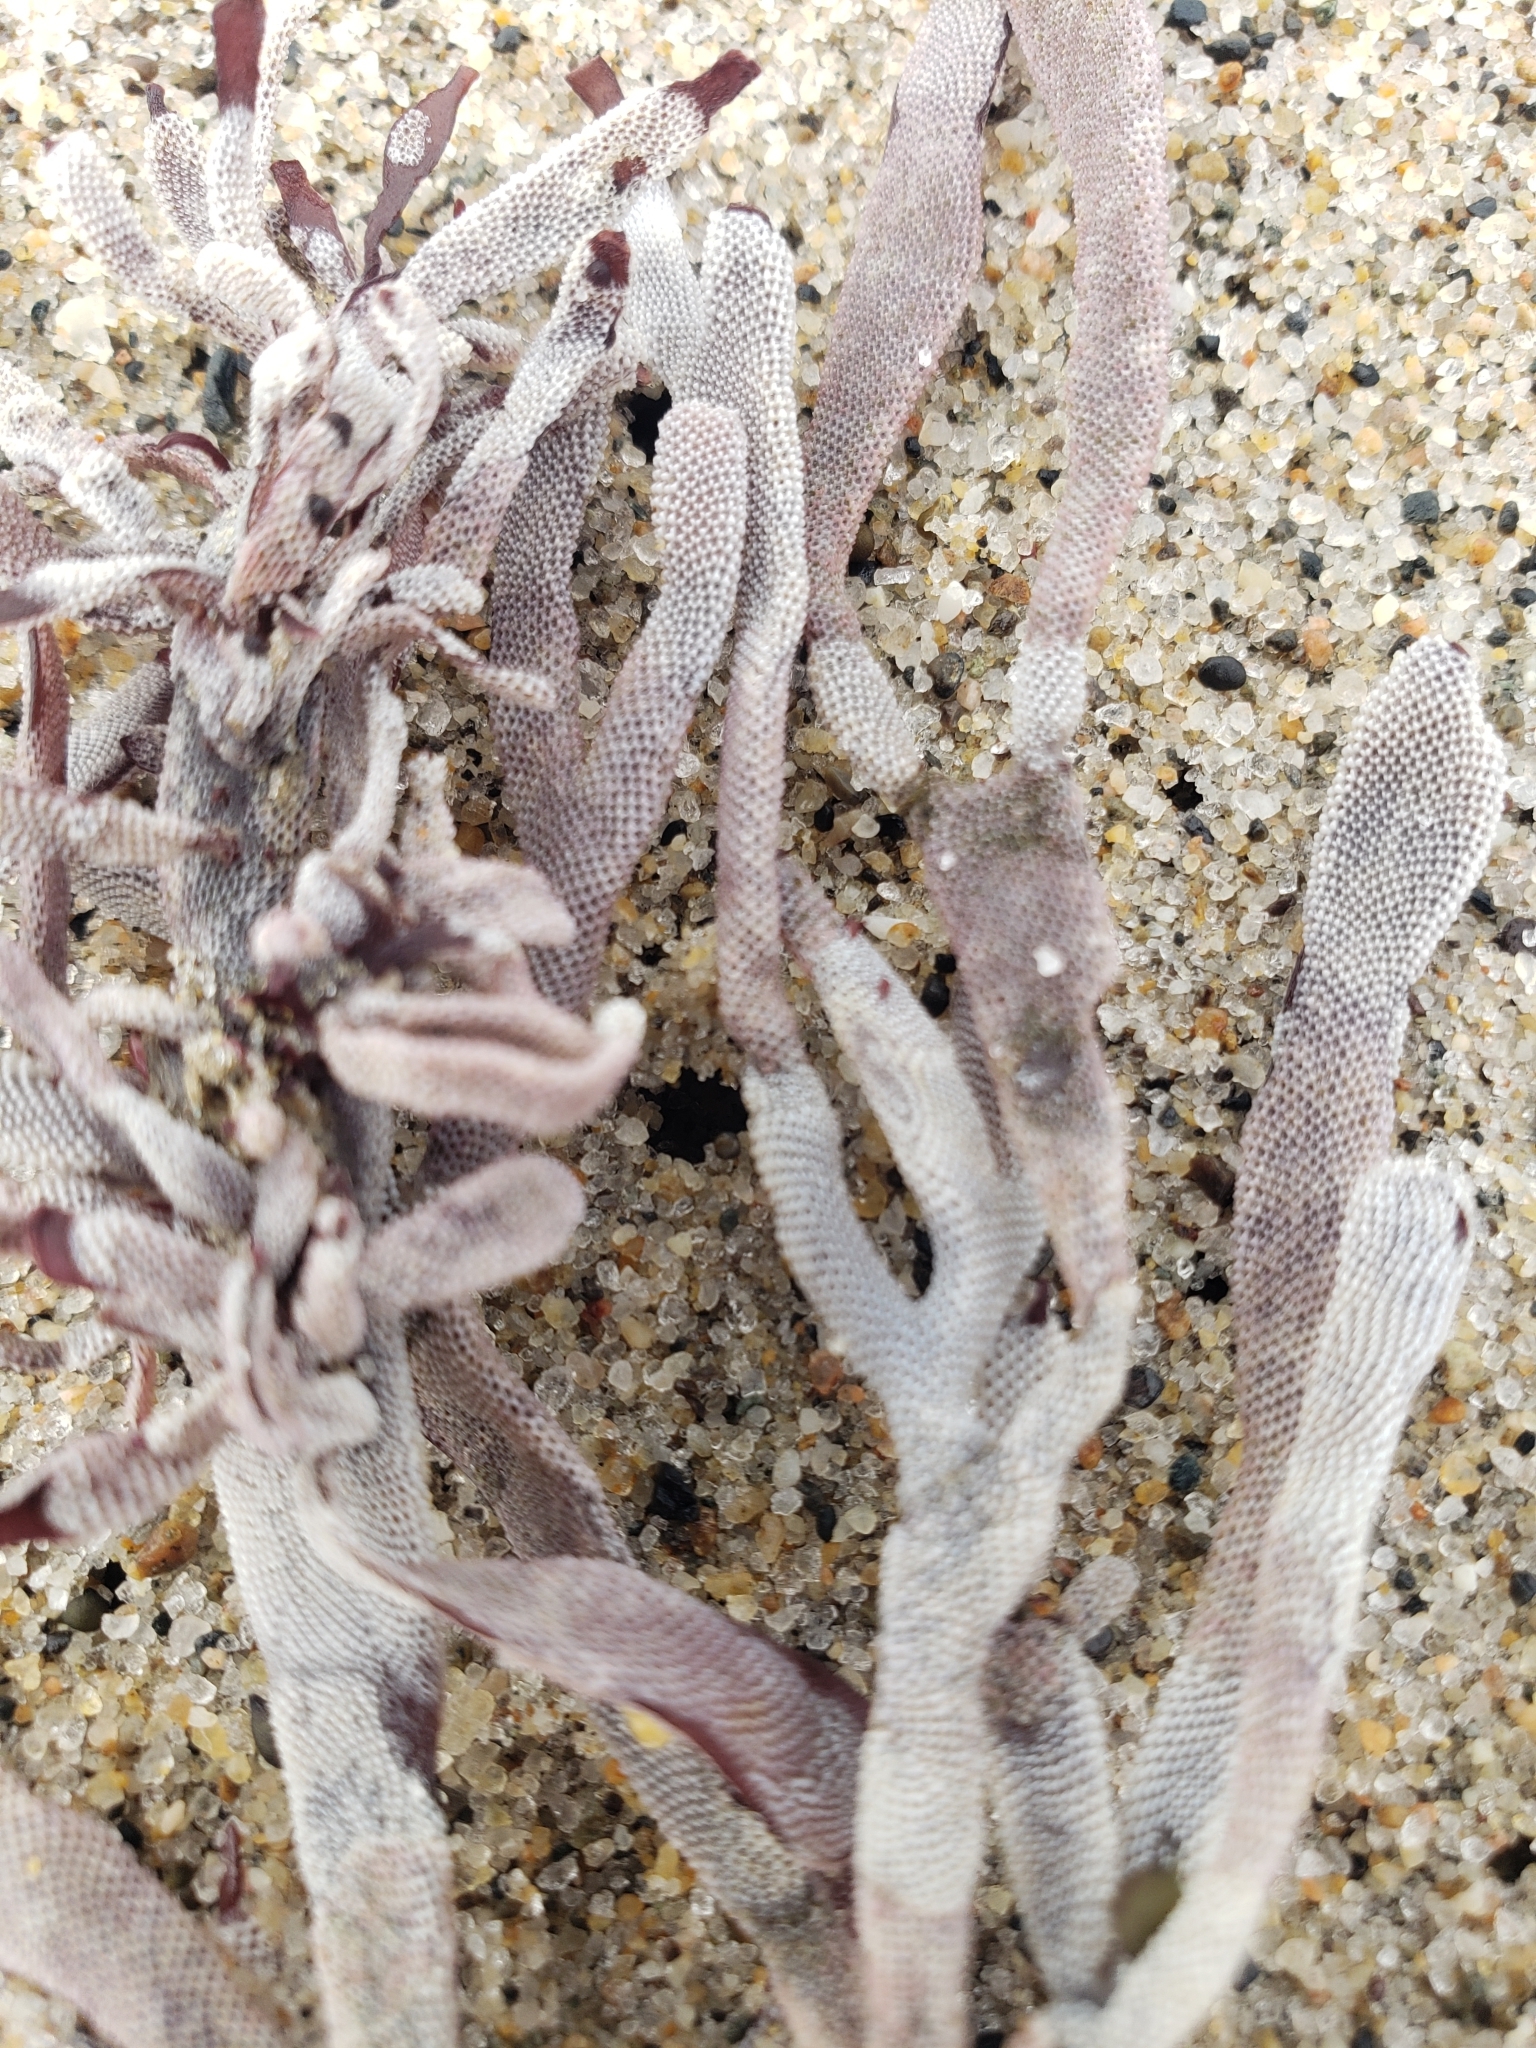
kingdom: Animalia
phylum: Bryozoa
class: Gymnolaemata
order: Cheilostomatida
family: Membraniporidae
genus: Jellyella
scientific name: Jellyella tuberculata
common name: Sargassum bryozoan
